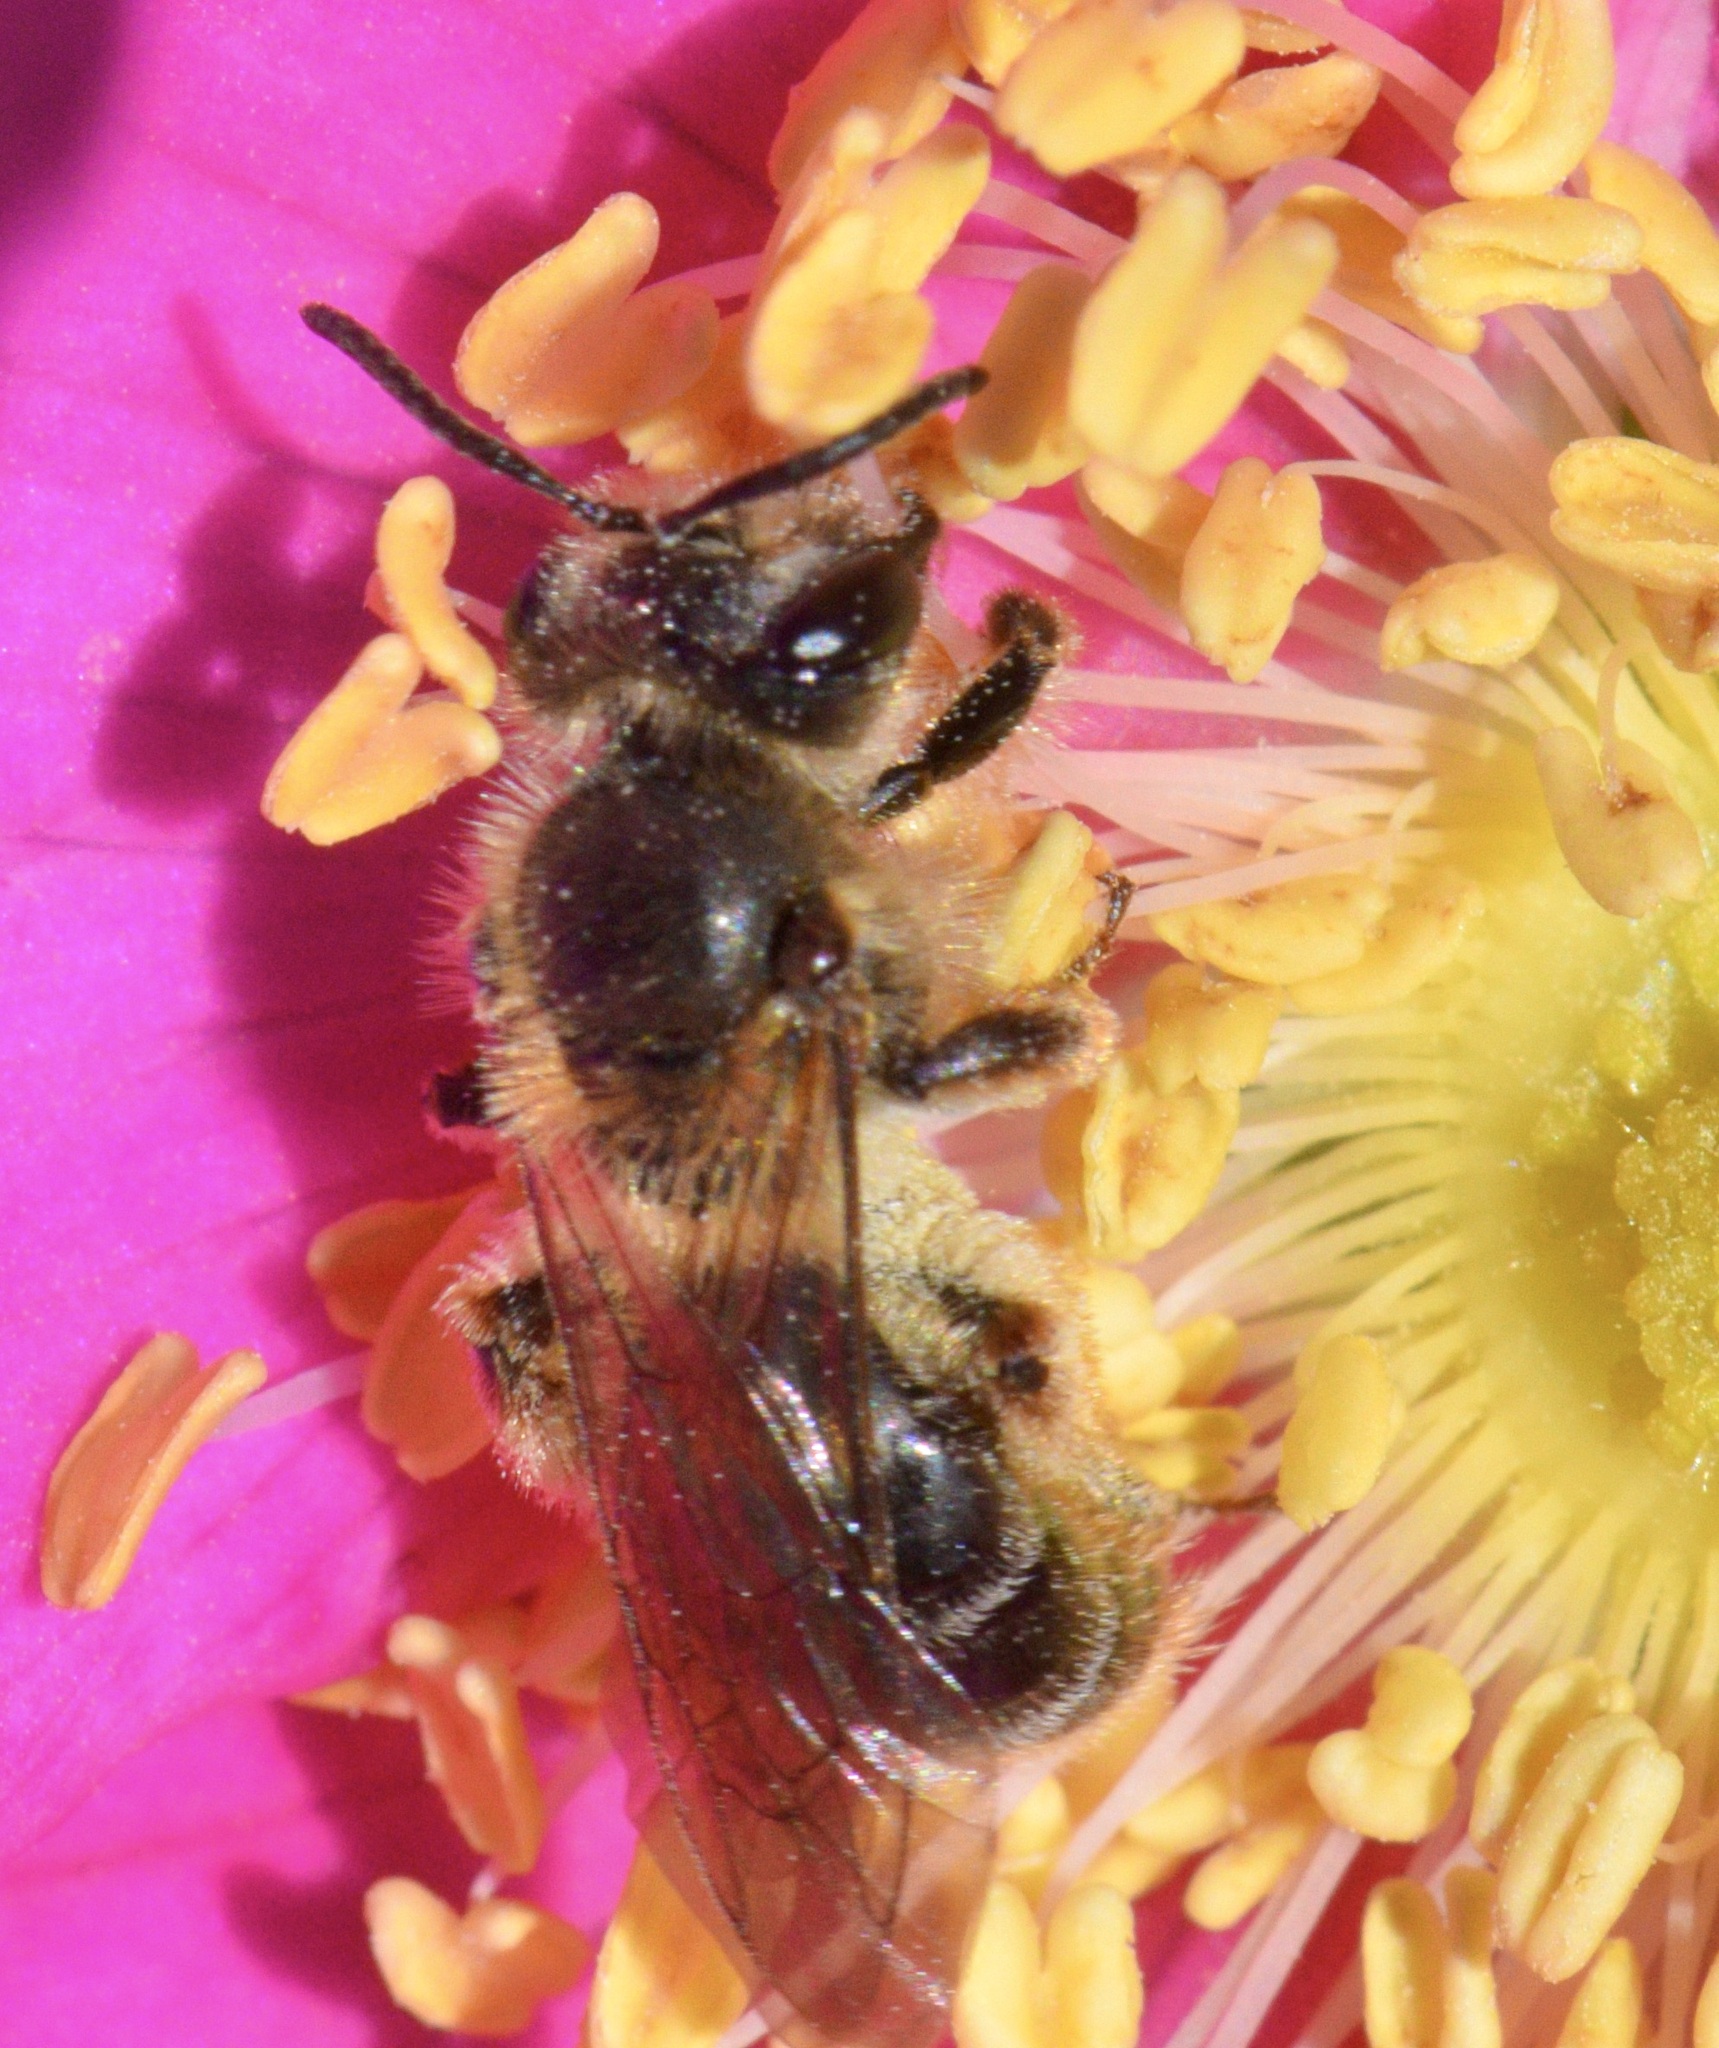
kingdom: Animalia
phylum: Arthropoda
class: Insecta
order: Hymenoptera
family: Andrenidae
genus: Andrena
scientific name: Andrena thaspii
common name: Parsnip miner bee
